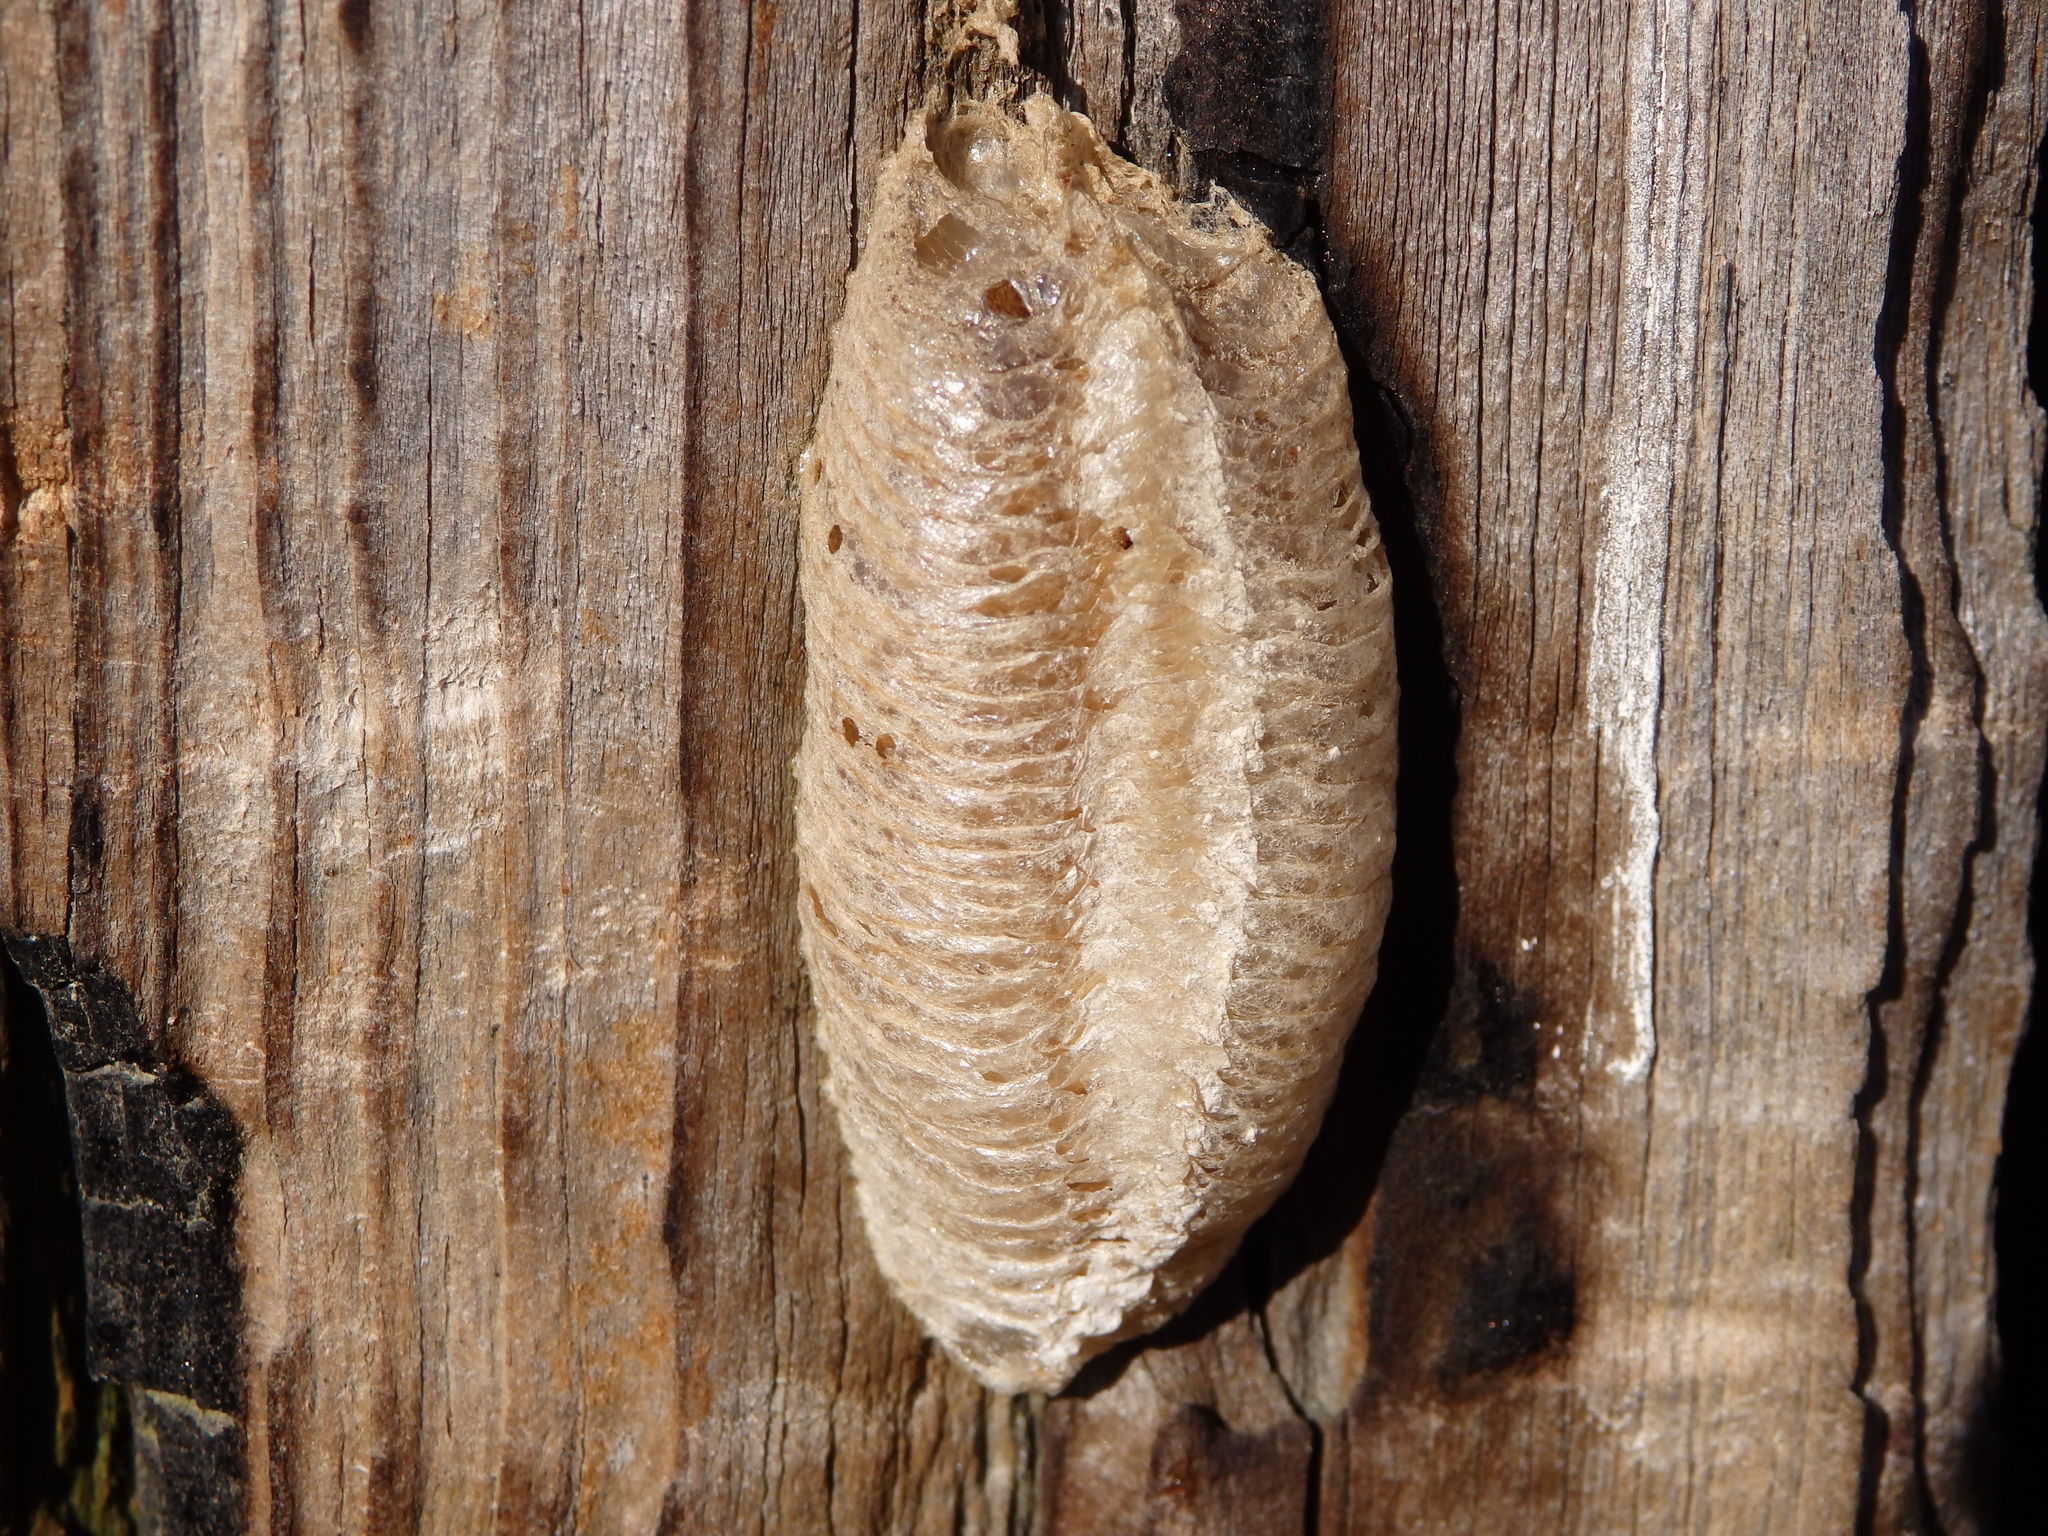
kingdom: Animalia
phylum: Arthropoda
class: Insecta
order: Mantodea
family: Mantidae
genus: Mantis
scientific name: Mantis religiosa
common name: Praying mantis
